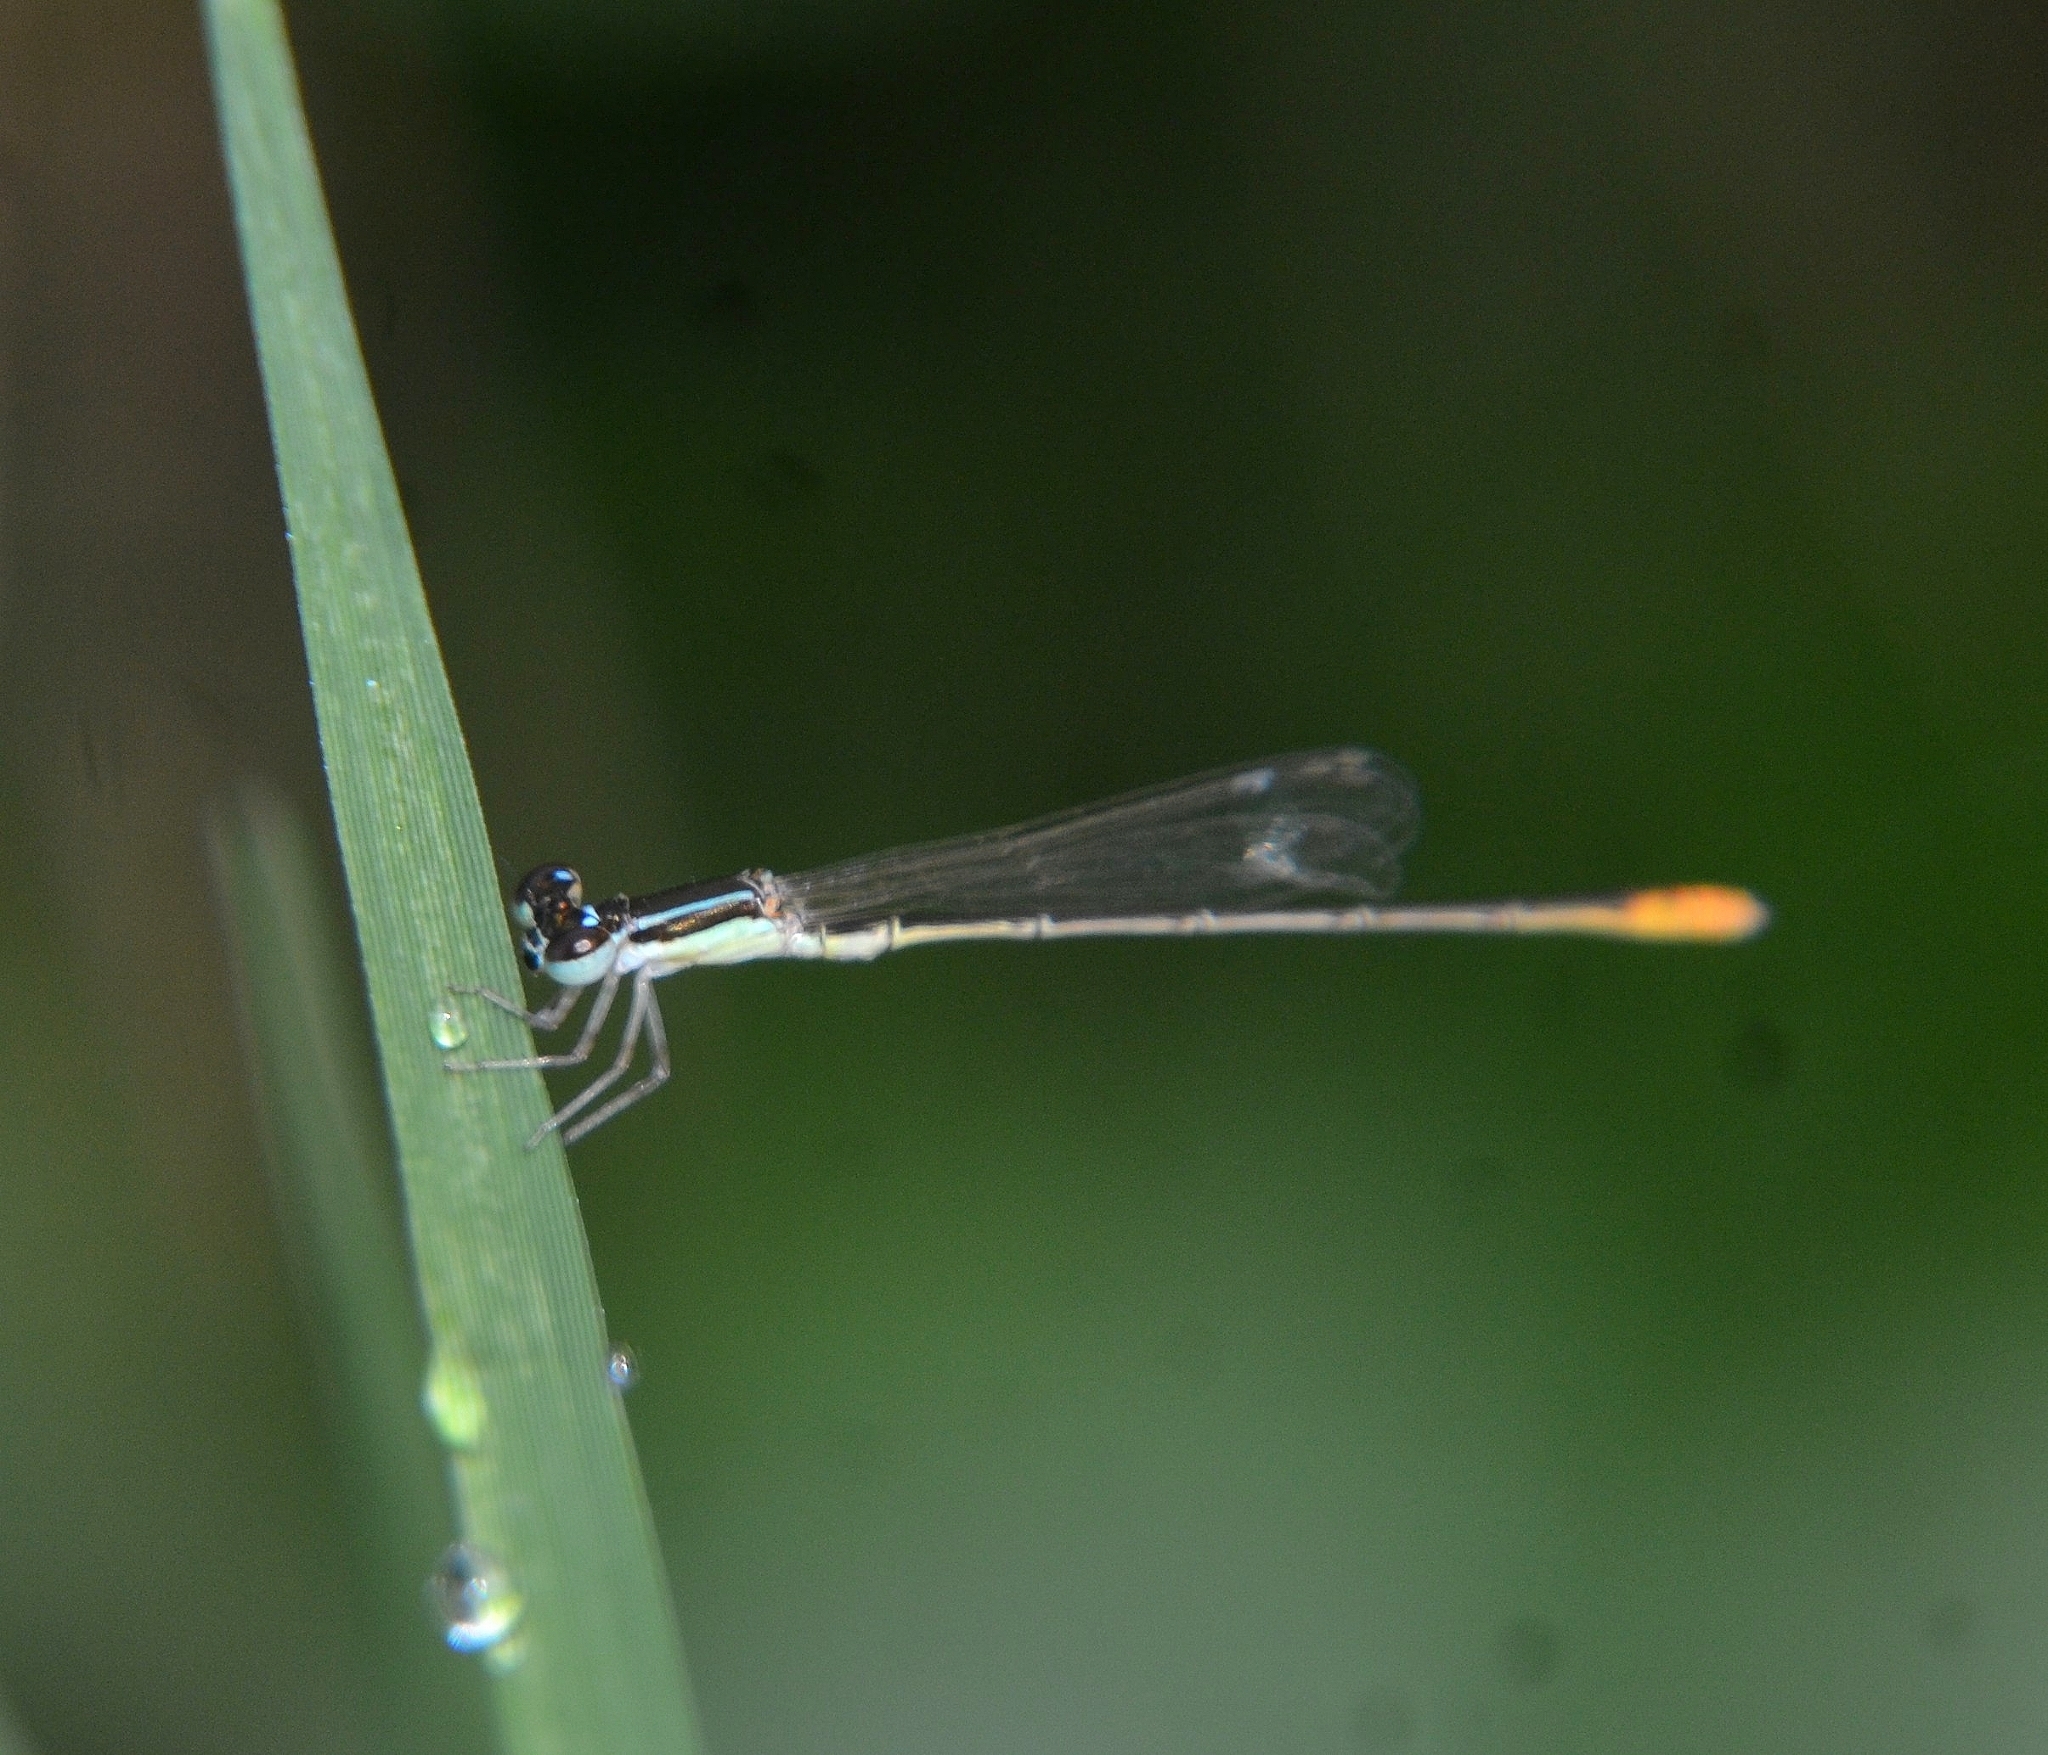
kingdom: Animalia
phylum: Arthropoda
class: Insecta
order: Odonata
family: Coenagrionidae
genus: Agriocnemis
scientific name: Agriocnemis pygmaea
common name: Pygmy wisp
